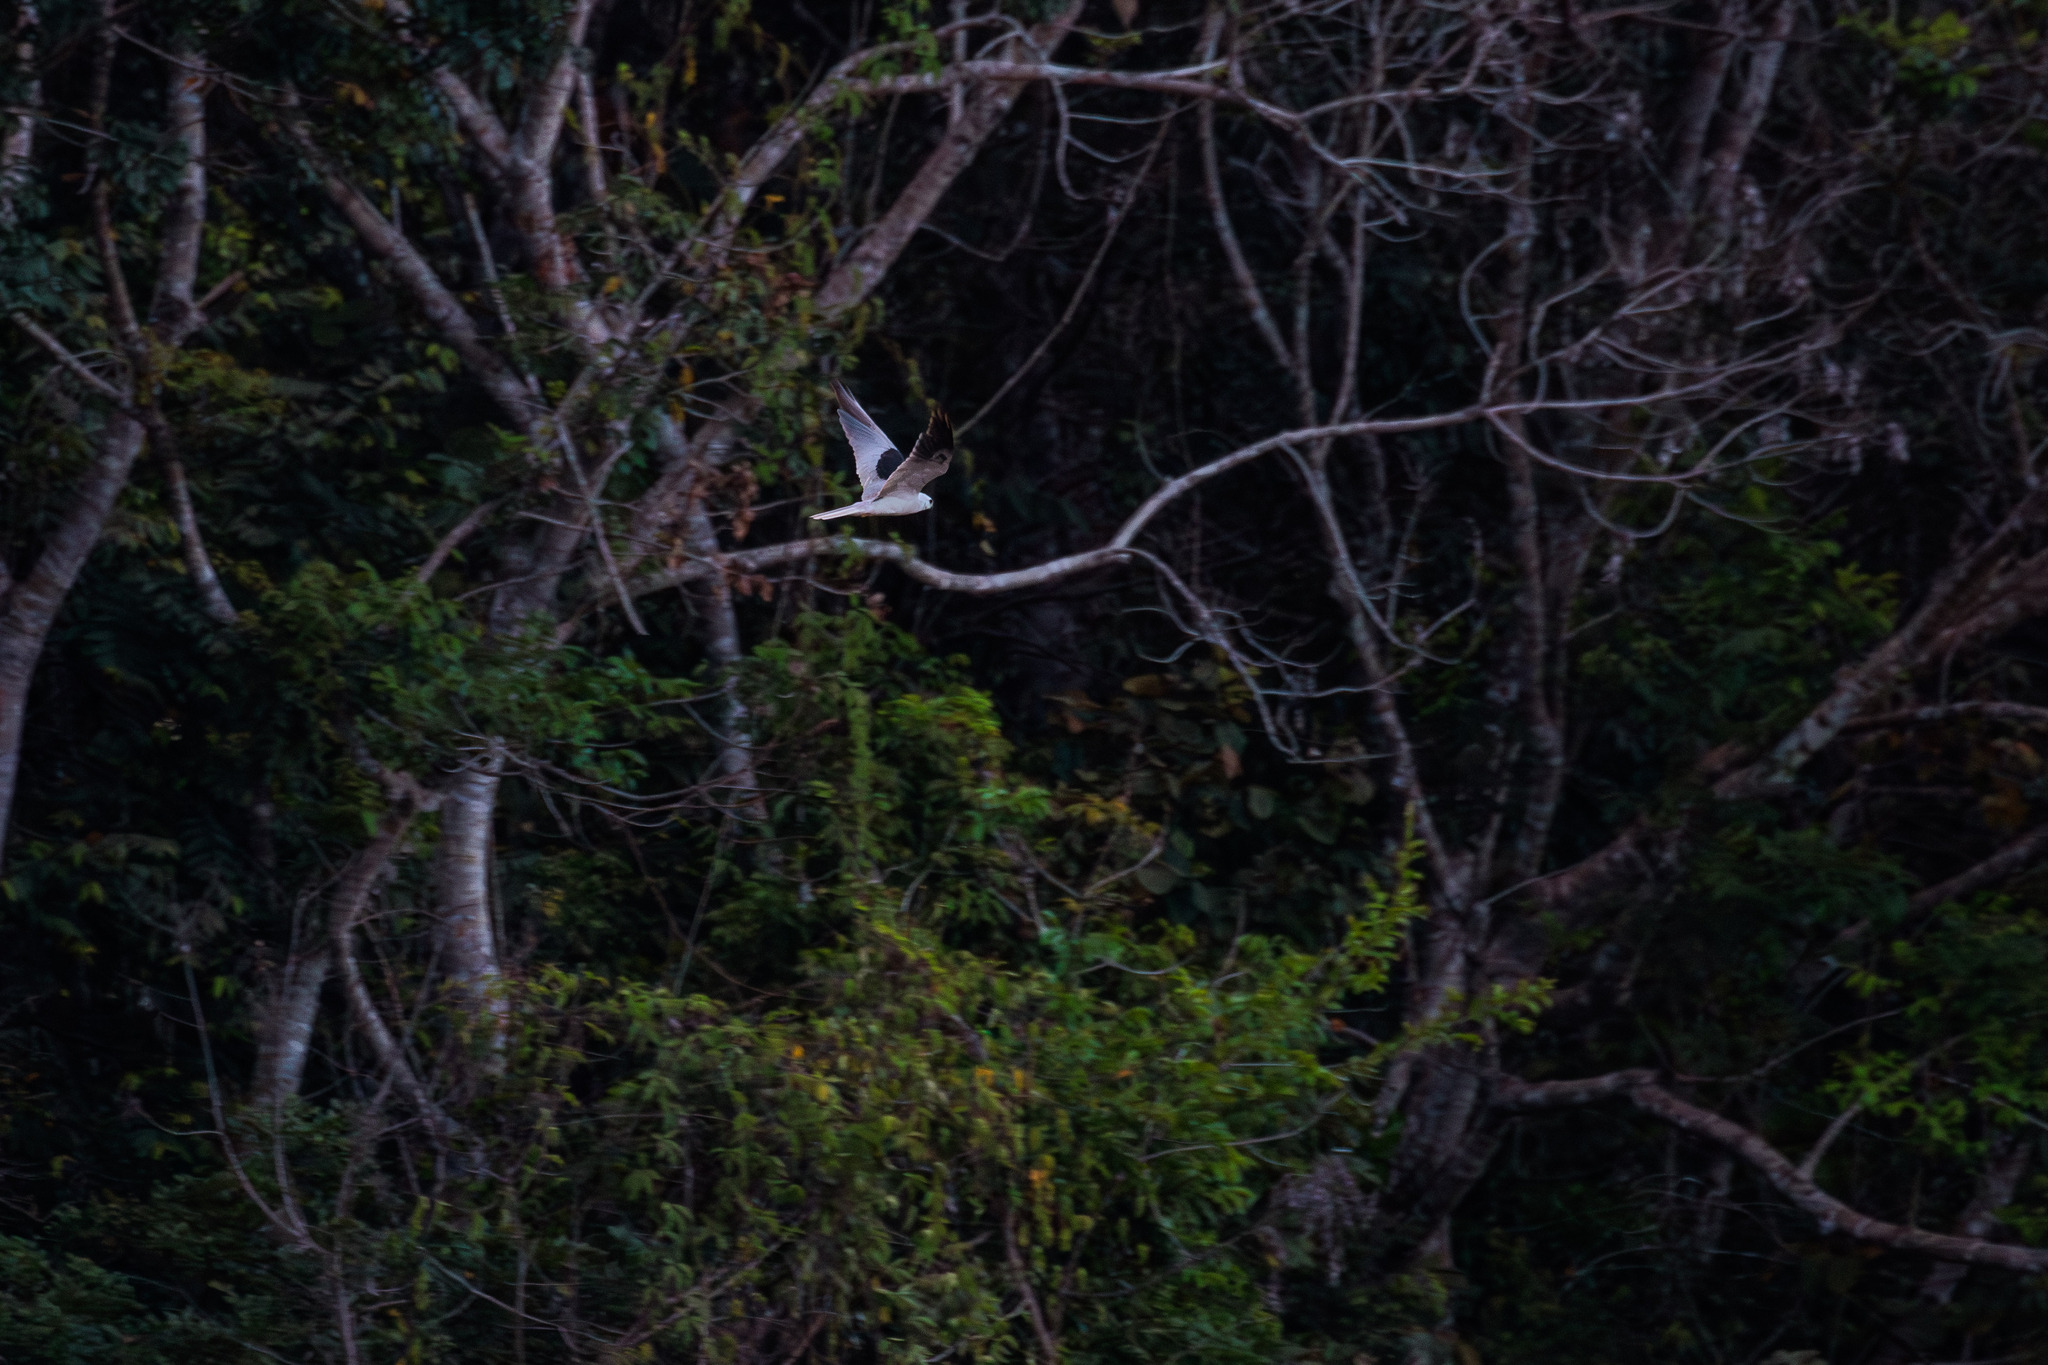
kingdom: Animalia
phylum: Chordata
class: Aves
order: Accipitriformes
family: Accipitridae
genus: Elanus
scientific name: Elanus leucurus
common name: White-tailed kite
